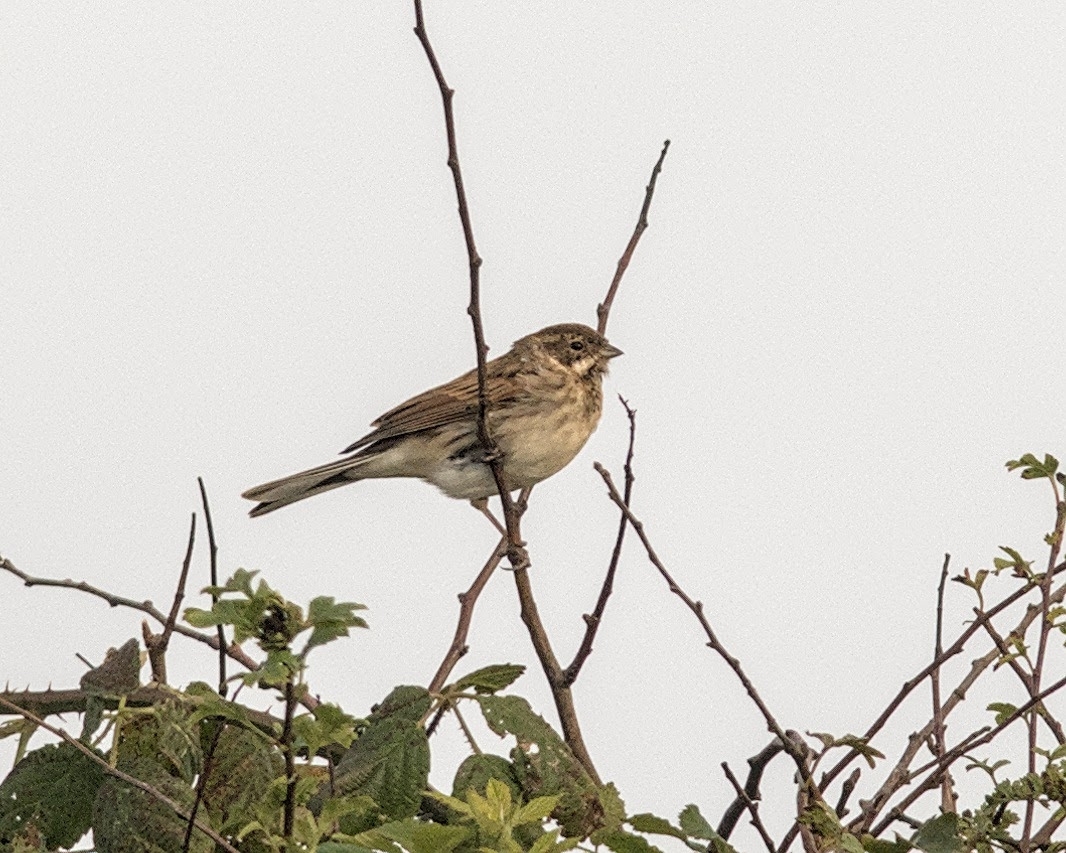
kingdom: Animalia
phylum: Chordata
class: Aves
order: Passeriformes
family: Emberizidae
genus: Emberiza
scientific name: Emberiza schoeniclus
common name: Reed bunting
